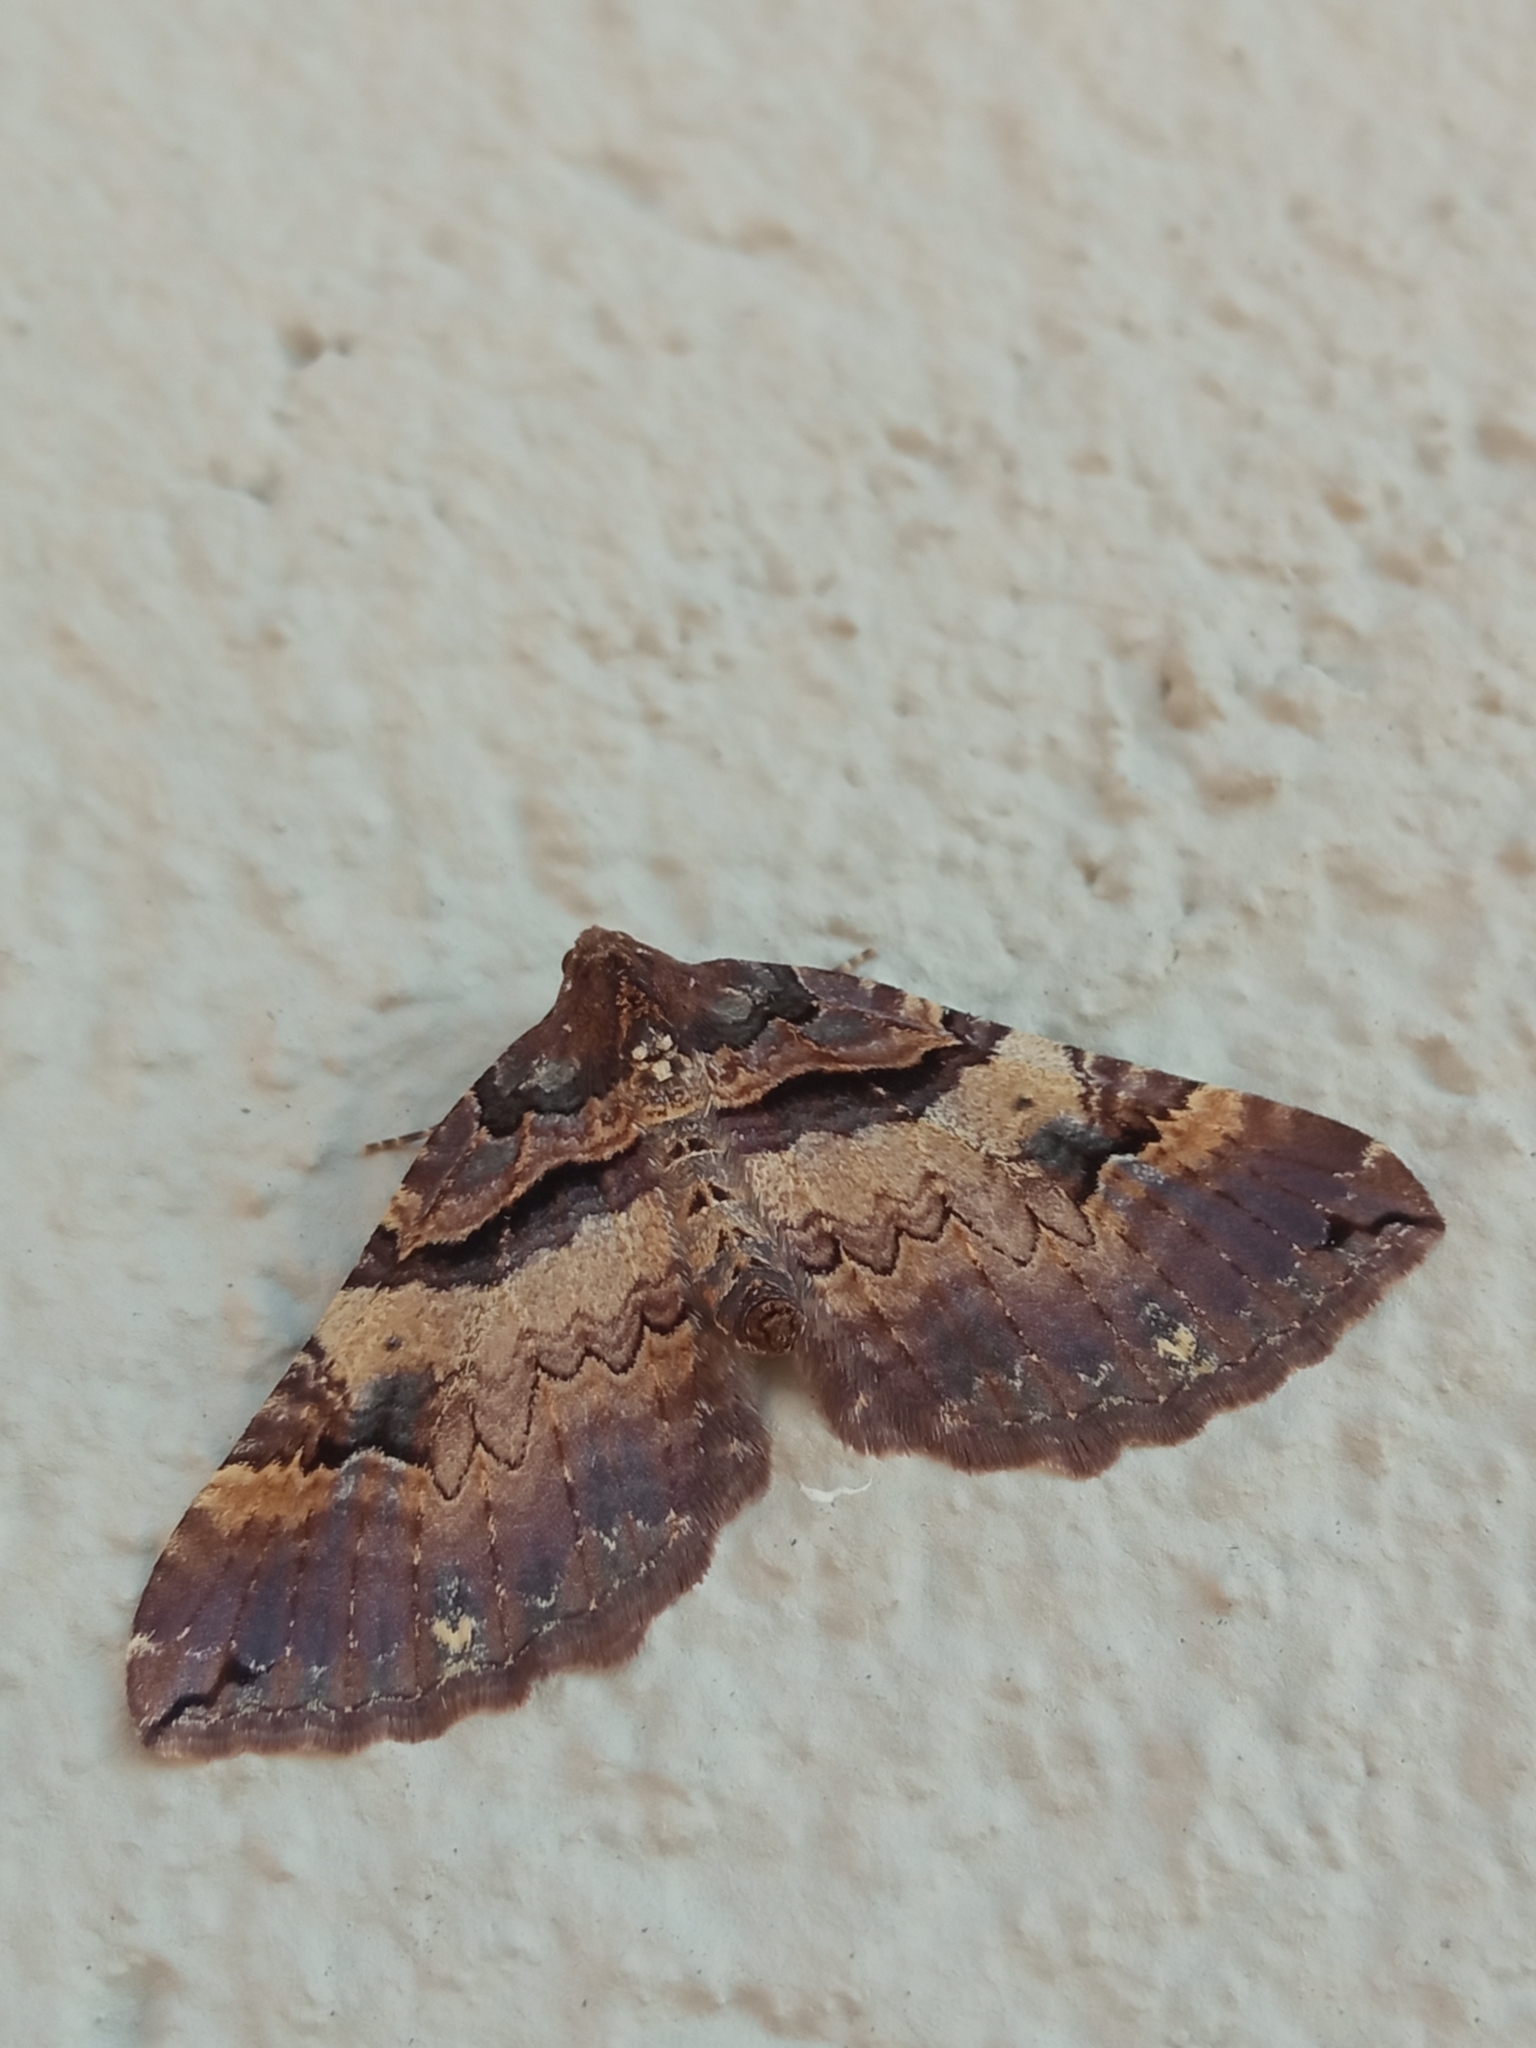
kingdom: Animalia
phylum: Arthropoda
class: Insecta
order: Lepidoptera
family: Geometridae
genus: Anticlea
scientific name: Anticlea badiata
